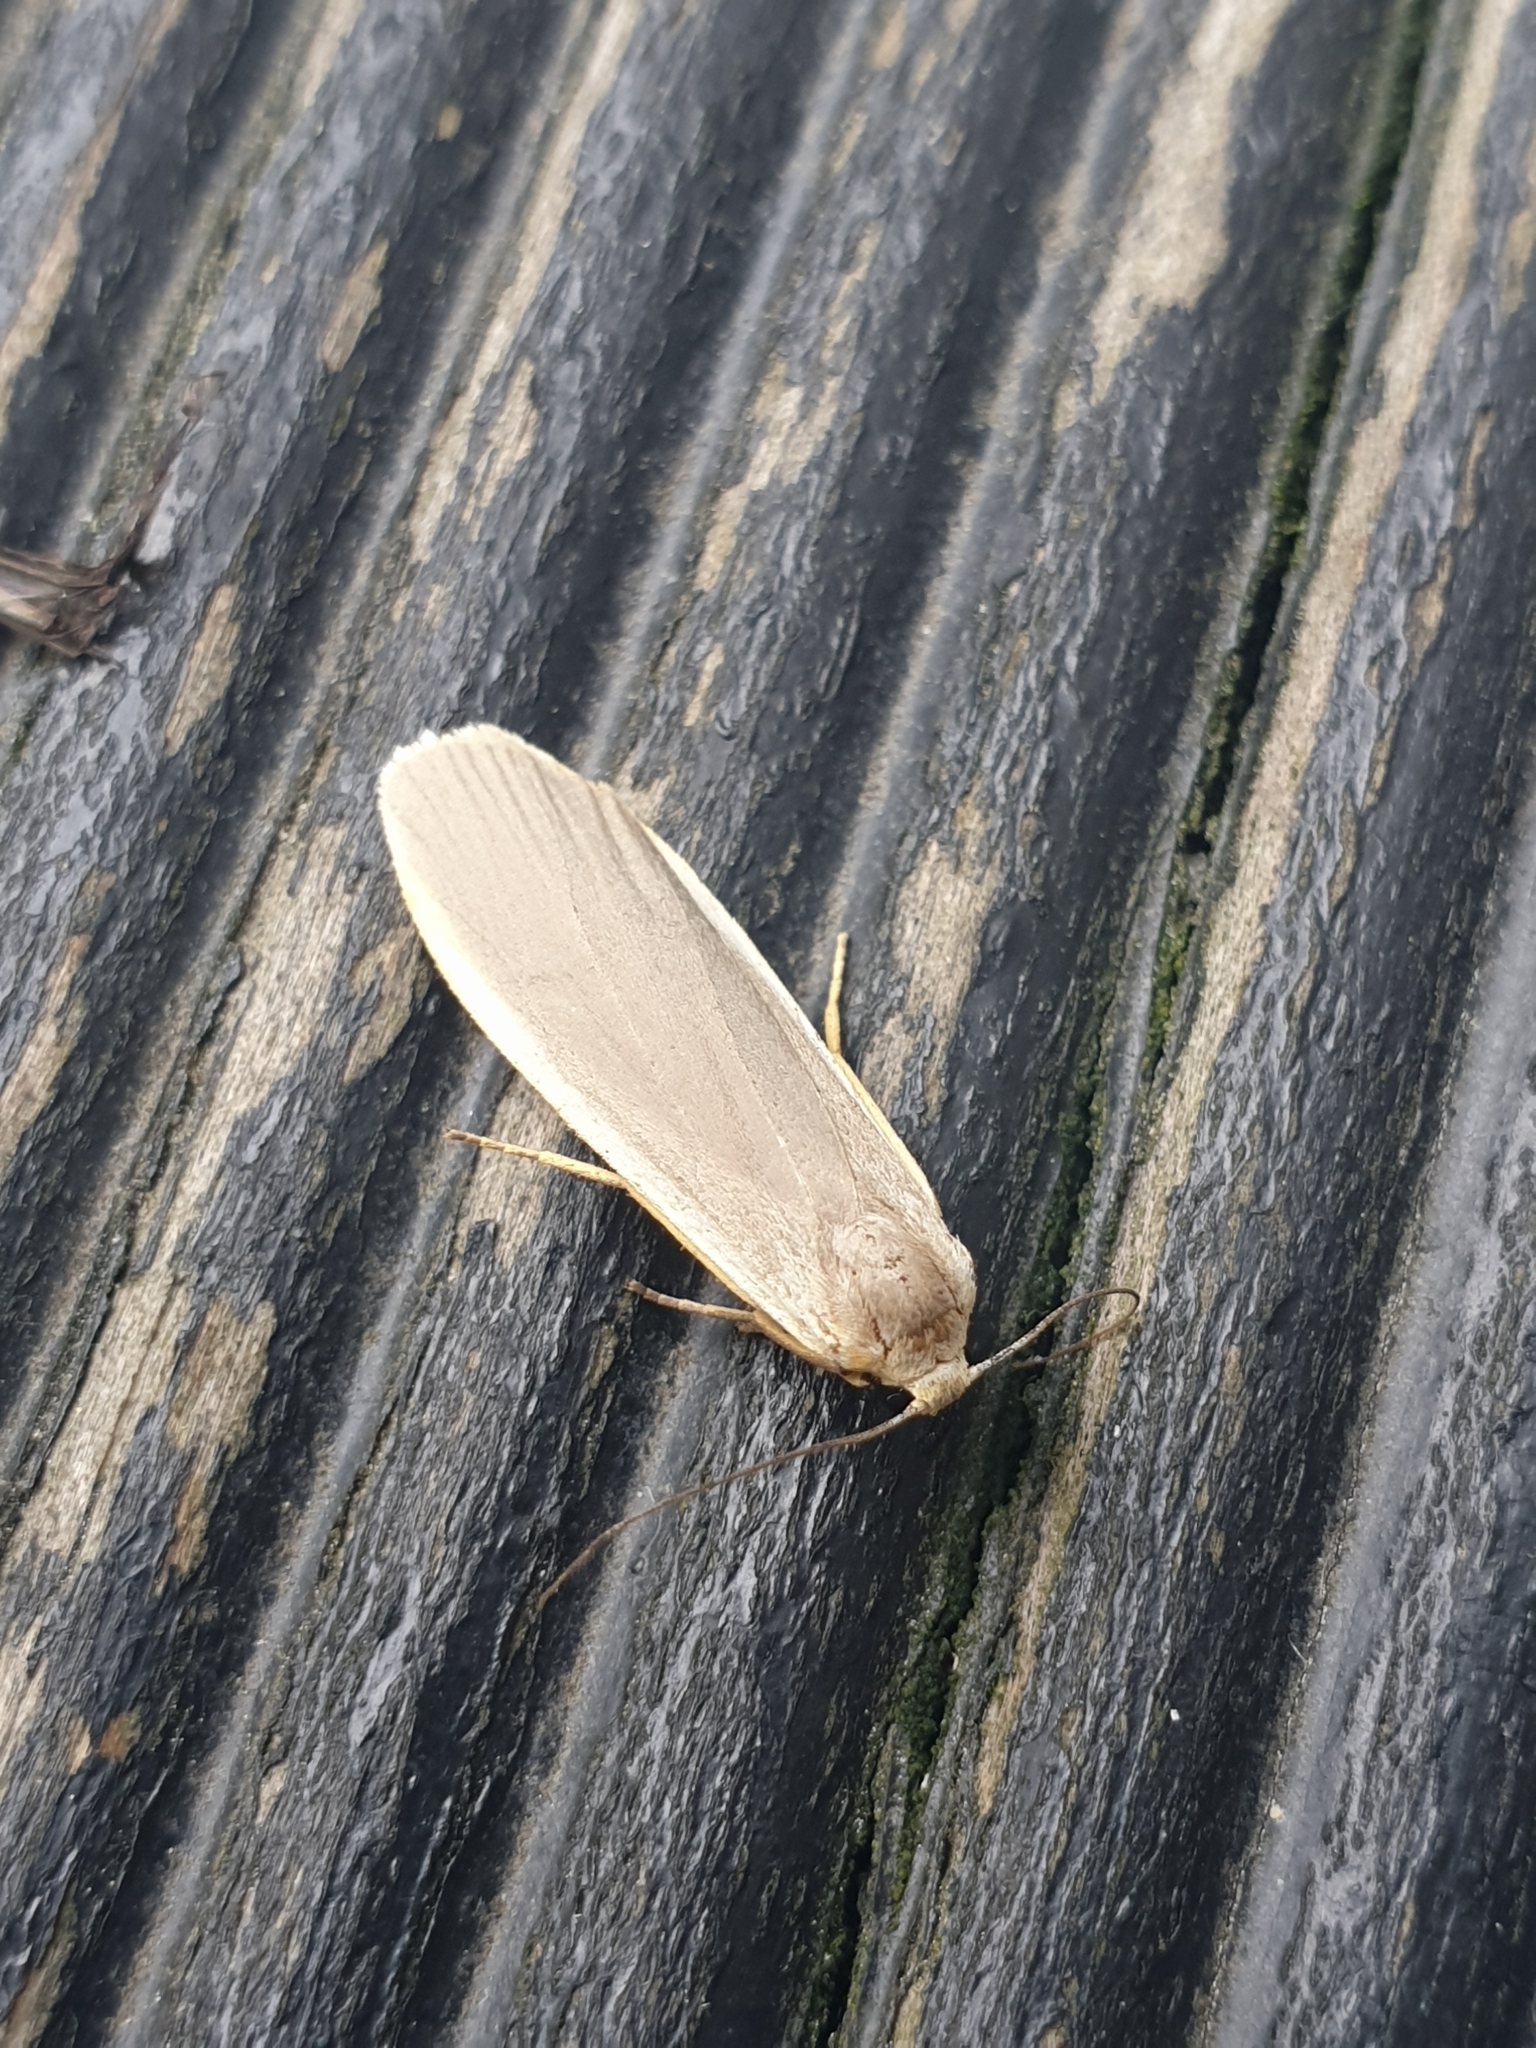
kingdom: Animalia
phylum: Arthropoda
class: Insecta
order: Lepidoptera
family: Erebidae
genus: Nyea
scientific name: Nyea lurideola
